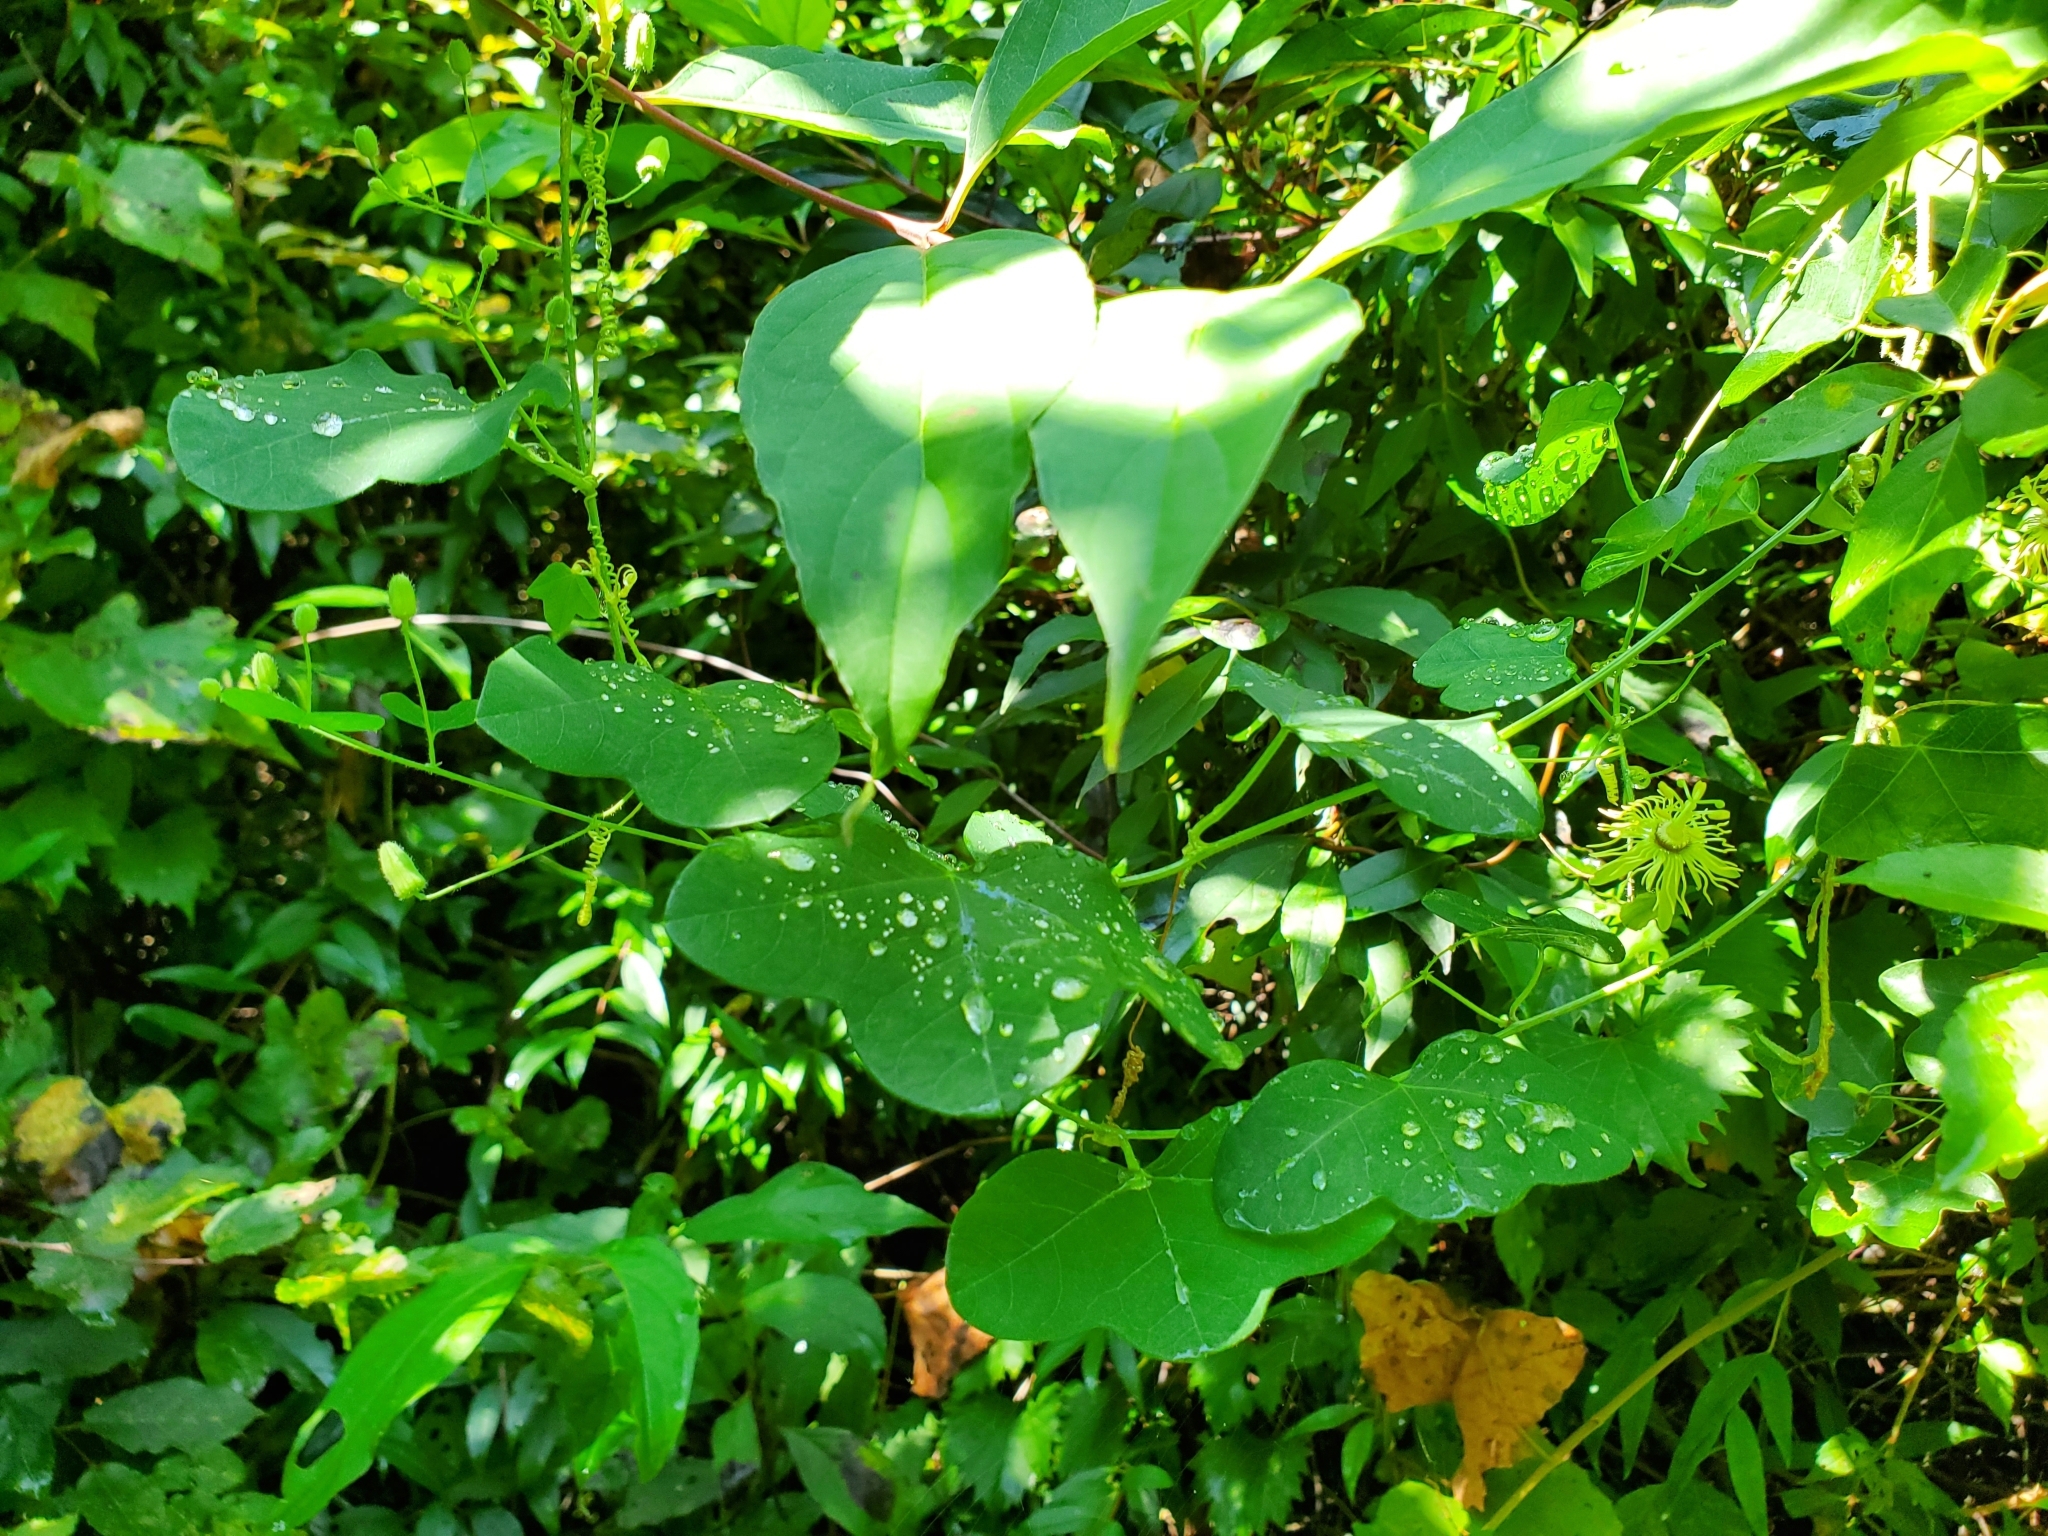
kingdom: Plantae
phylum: Tracheophyta
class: Magnoliopsida
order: Malpighiales
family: Passifloraceae
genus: Passiflora
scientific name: Passiflora lutea
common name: Yellow passionflower
